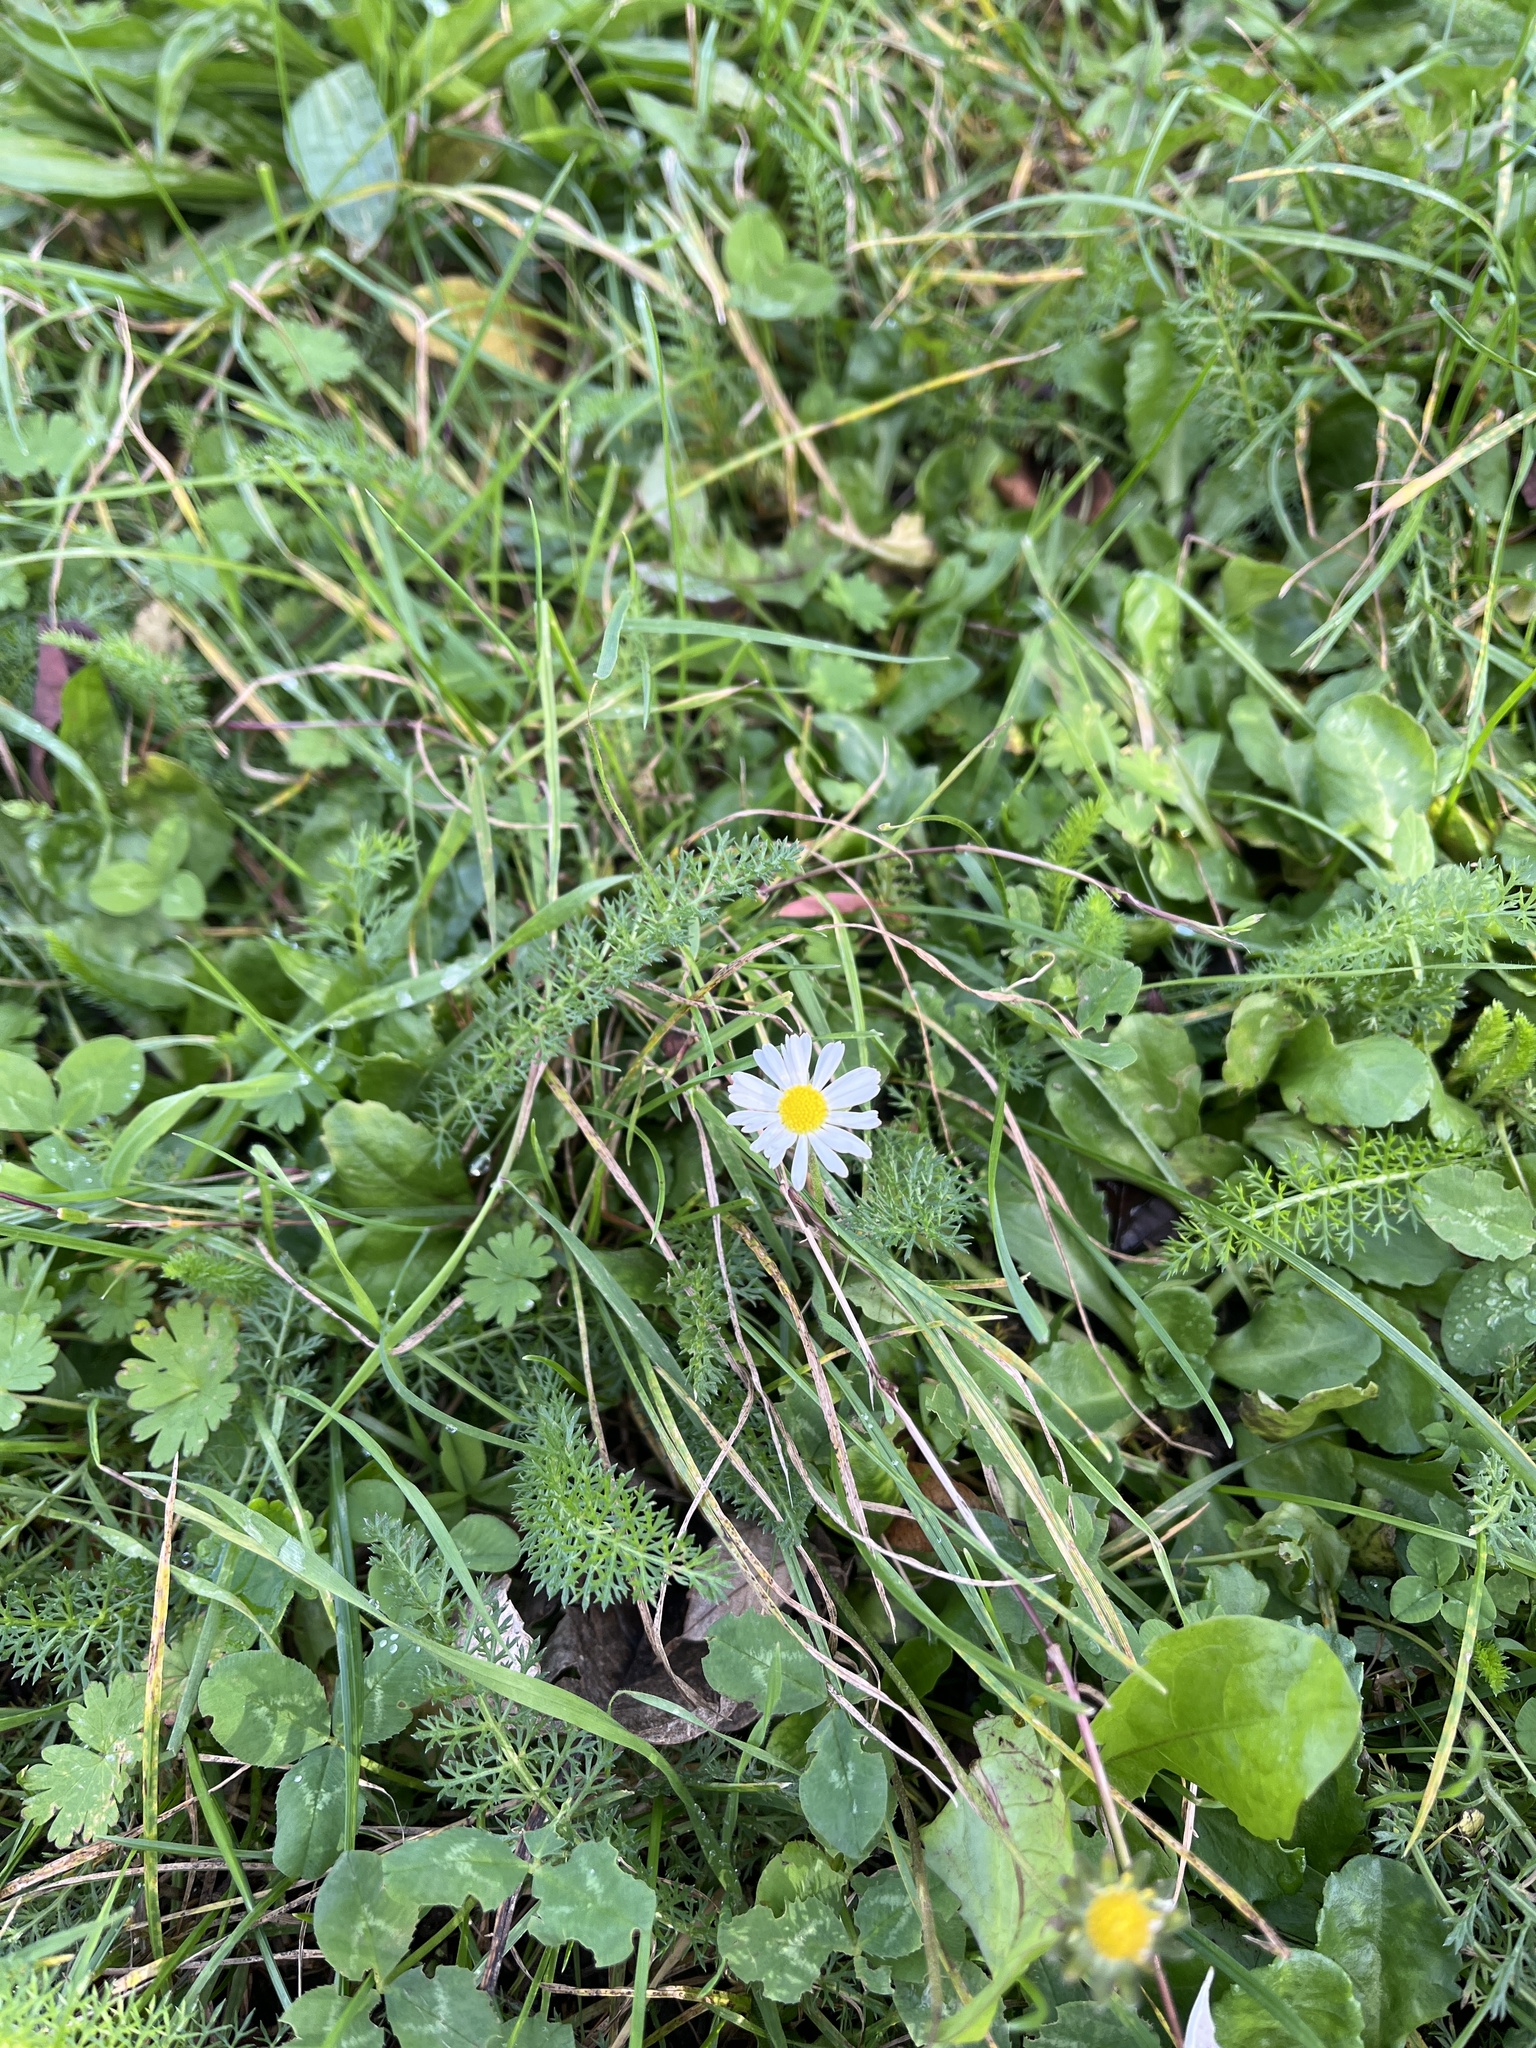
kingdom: Plantae
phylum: Tracheophyta
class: Magnoliopsida
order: Asterales
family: Asteraceae
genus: Bellis
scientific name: Bellis perennis
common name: Lawndaisy
